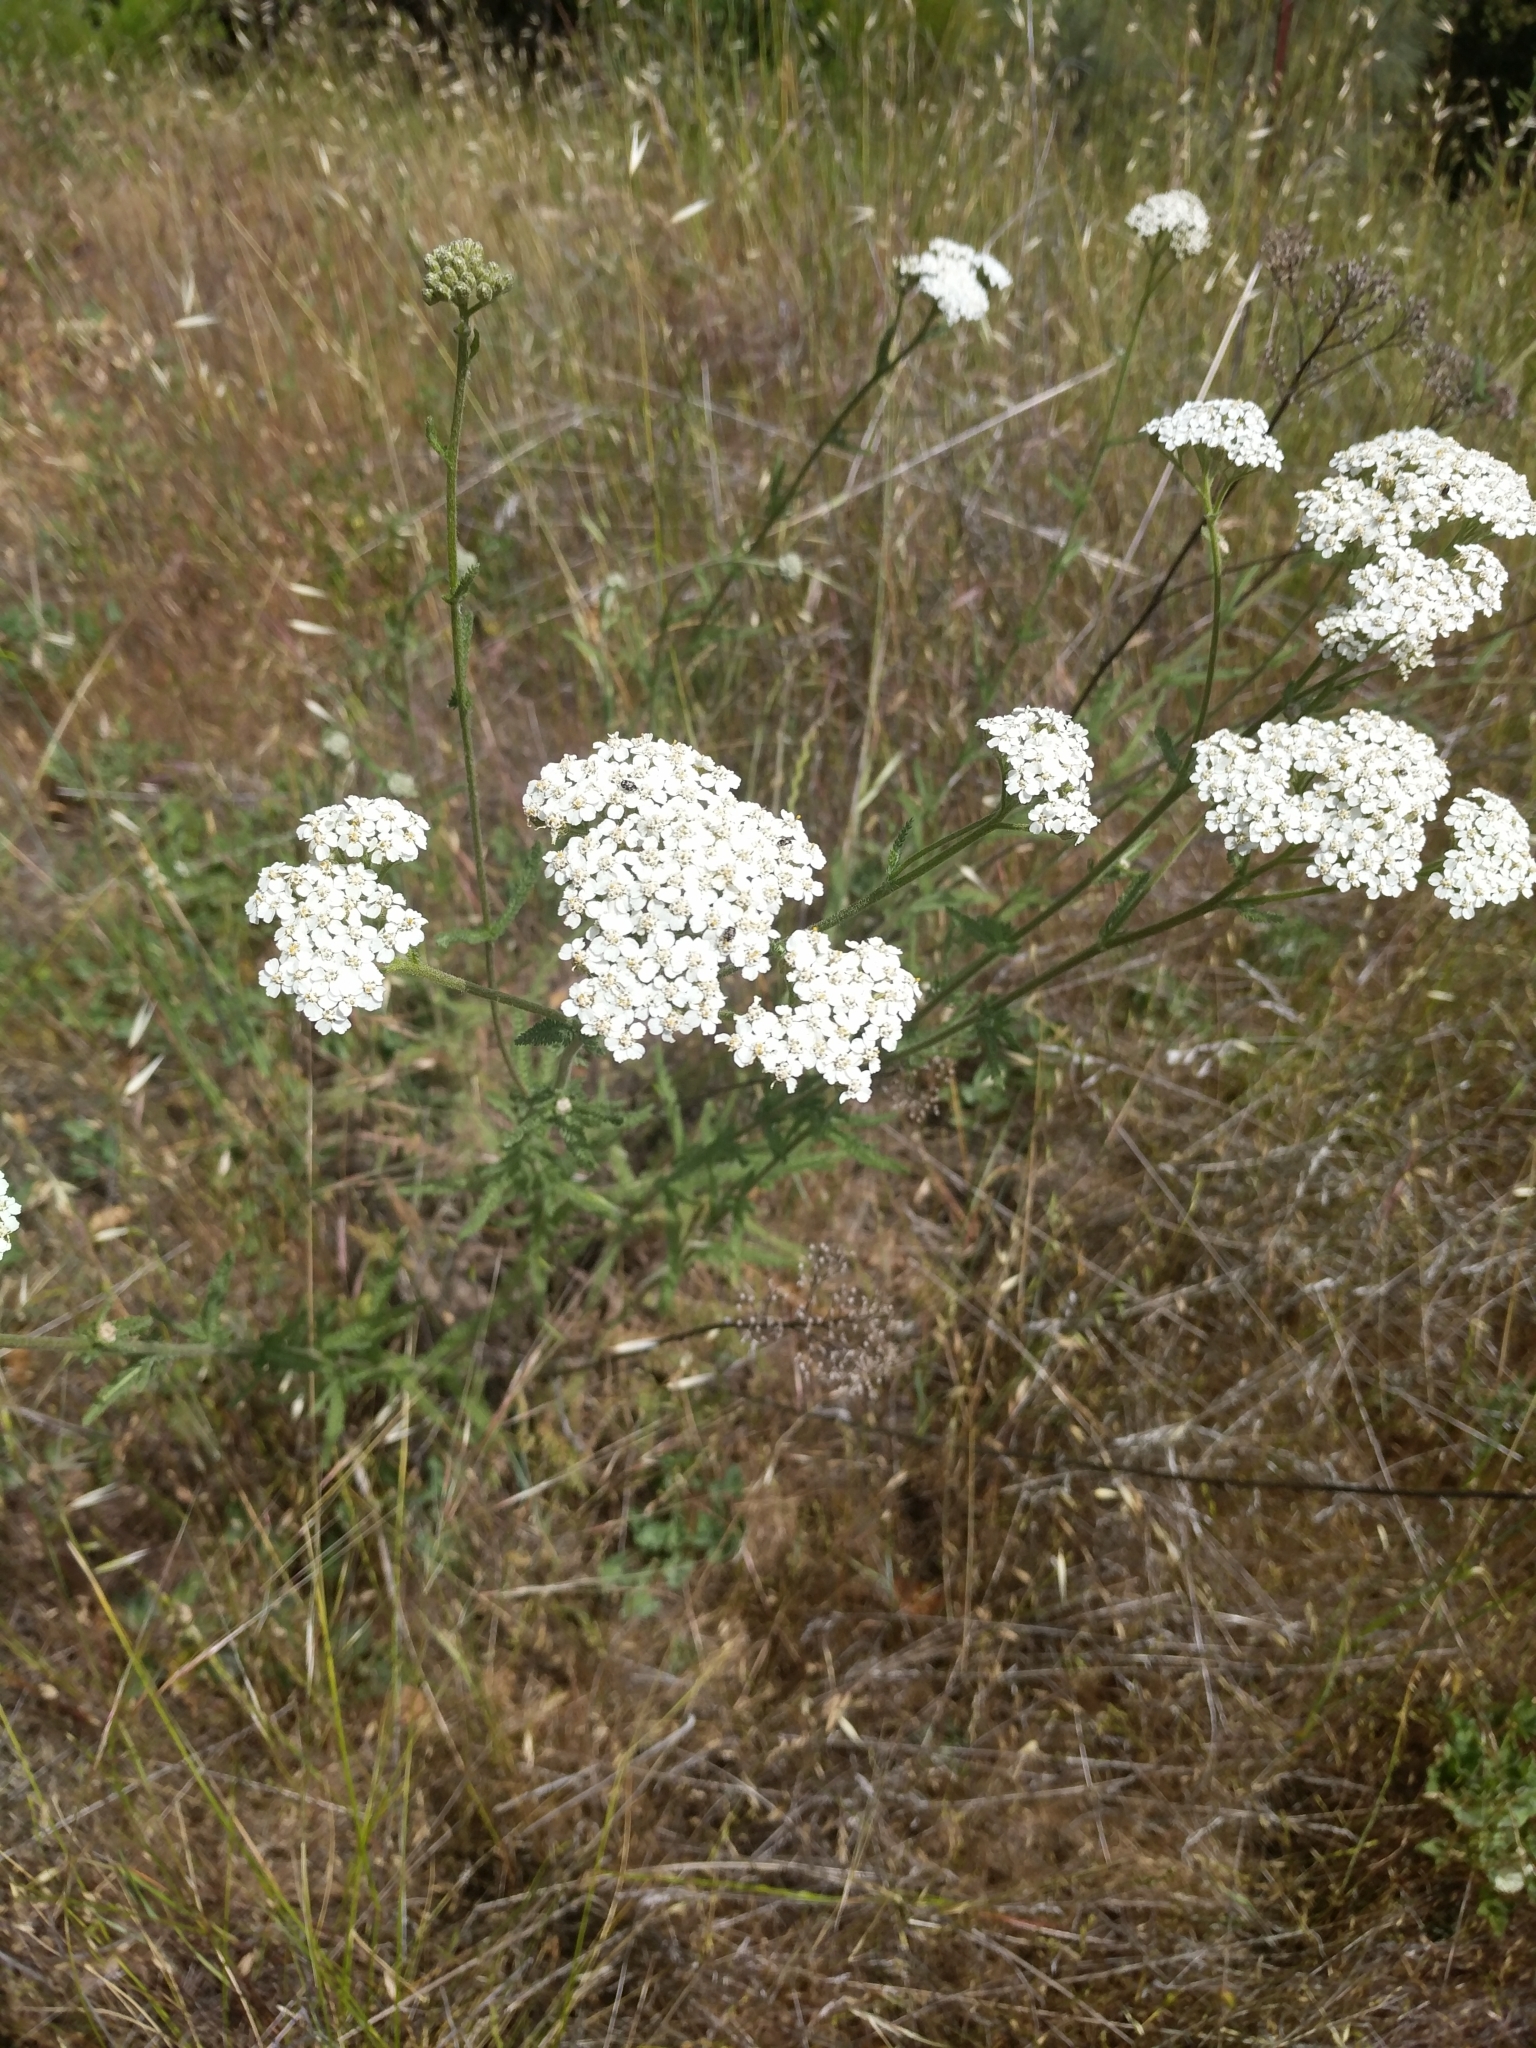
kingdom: Plantae
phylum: Tracheophyta
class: Magnoliopsida
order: Asterales
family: Asteraceae
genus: Achillea
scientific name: Achillea millefolium
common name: Yarrow
